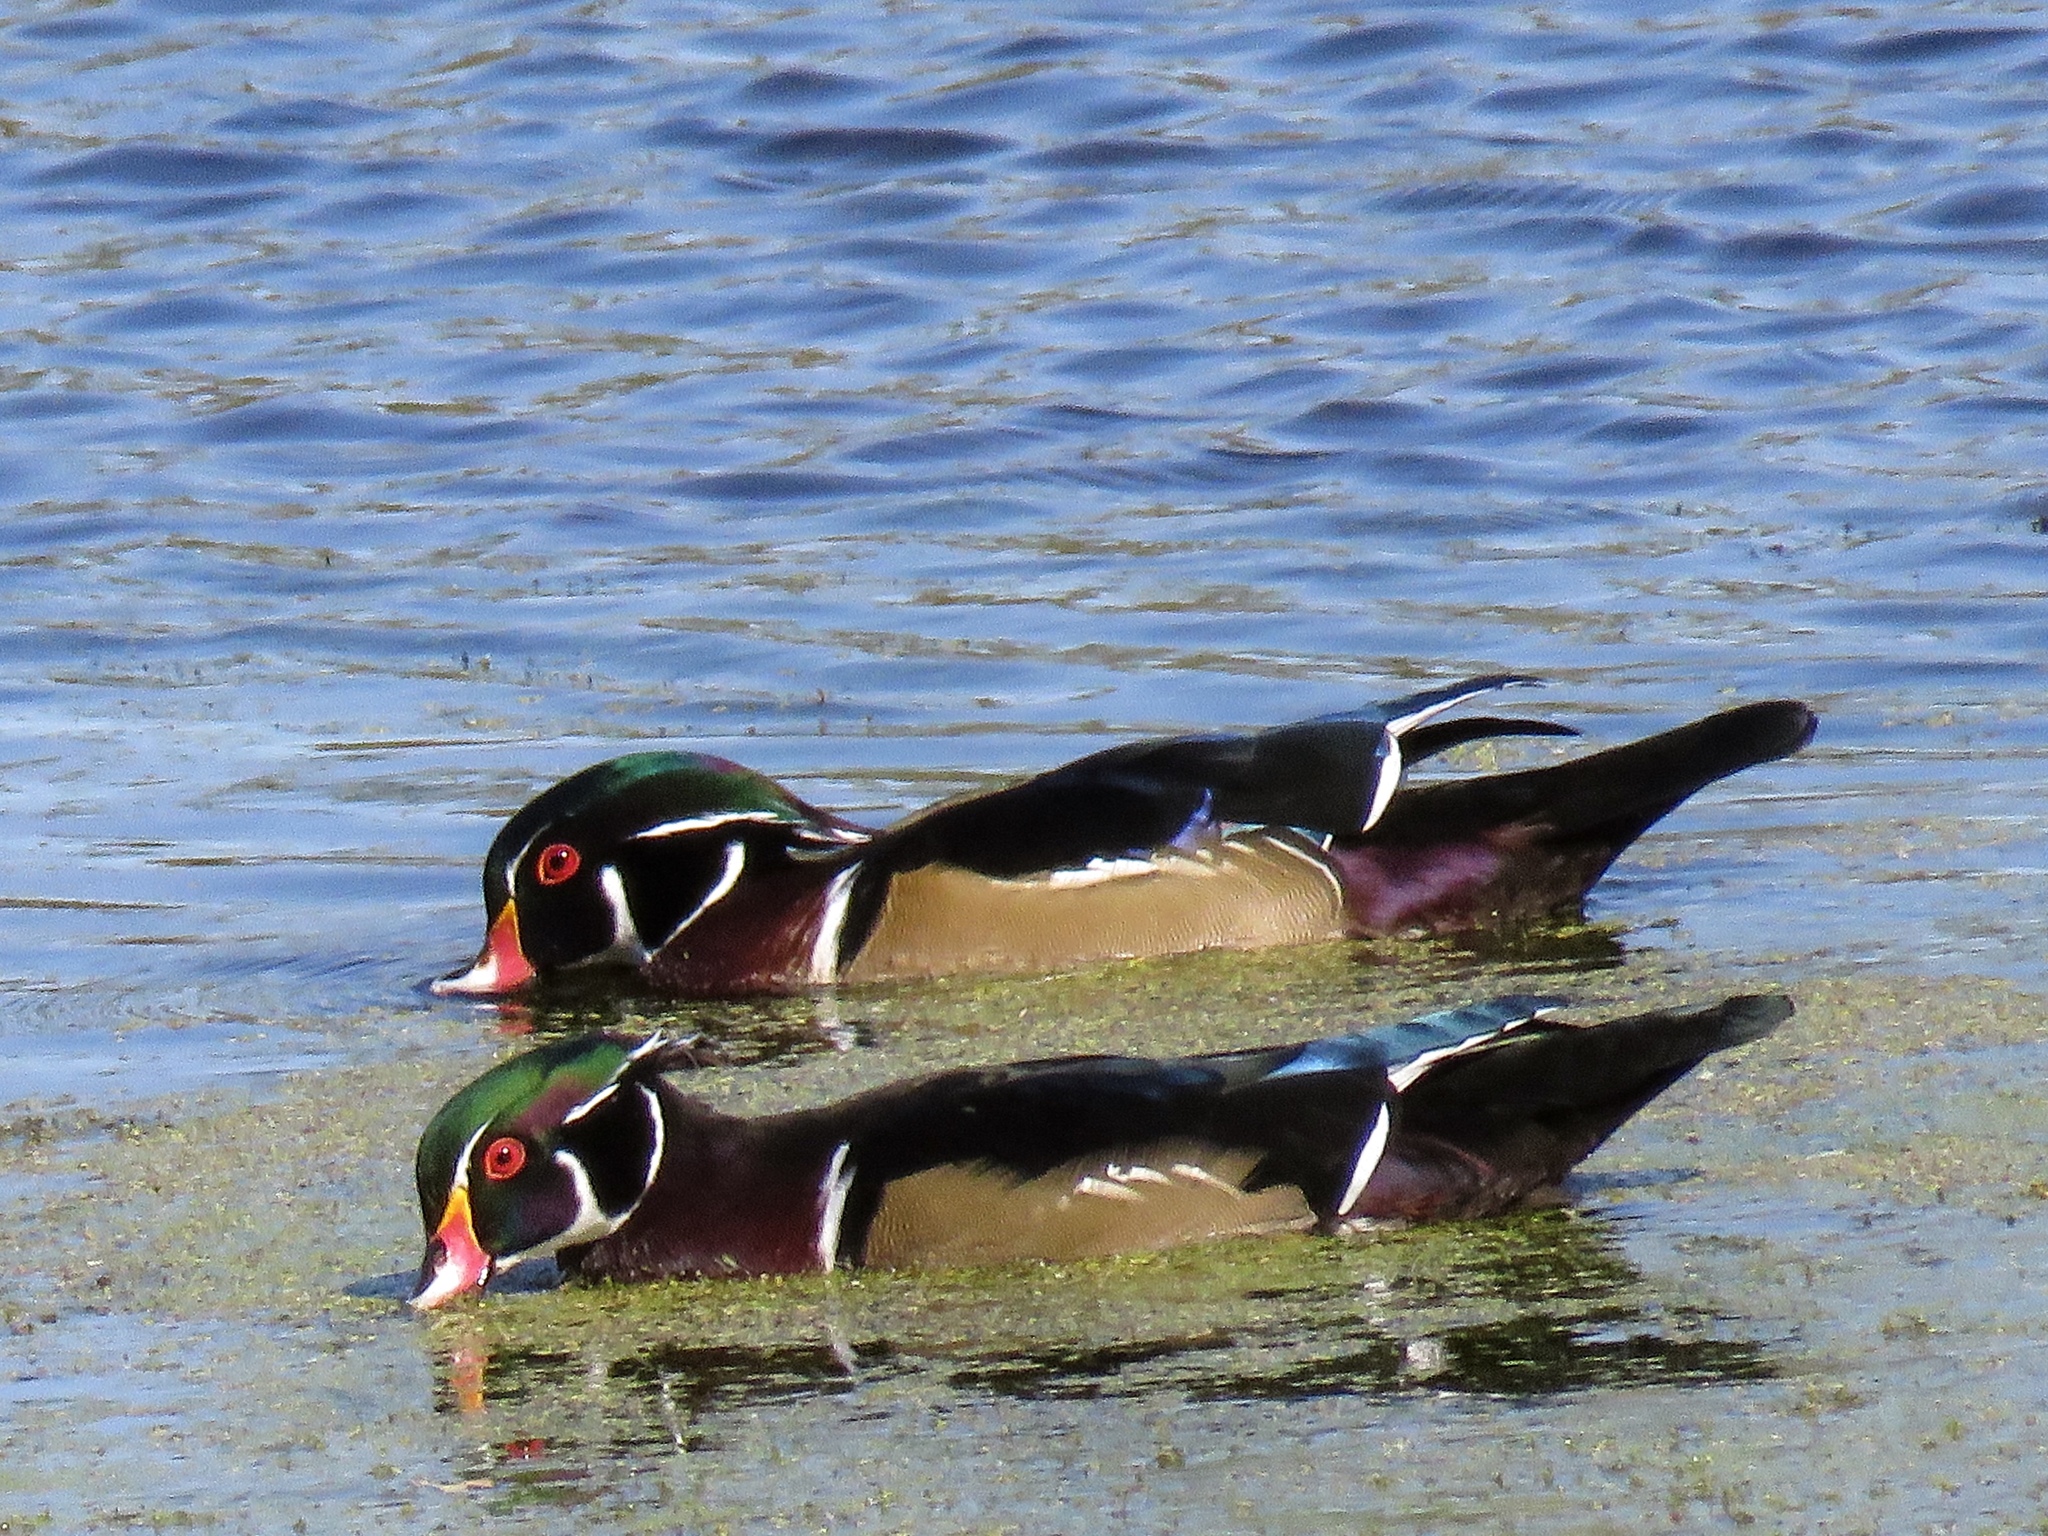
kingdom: Animalia
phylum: Chordata
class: Aves
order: Anseriformes
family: Anatidae
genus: Aix
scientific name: Aix sponsa
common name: Wood duck
